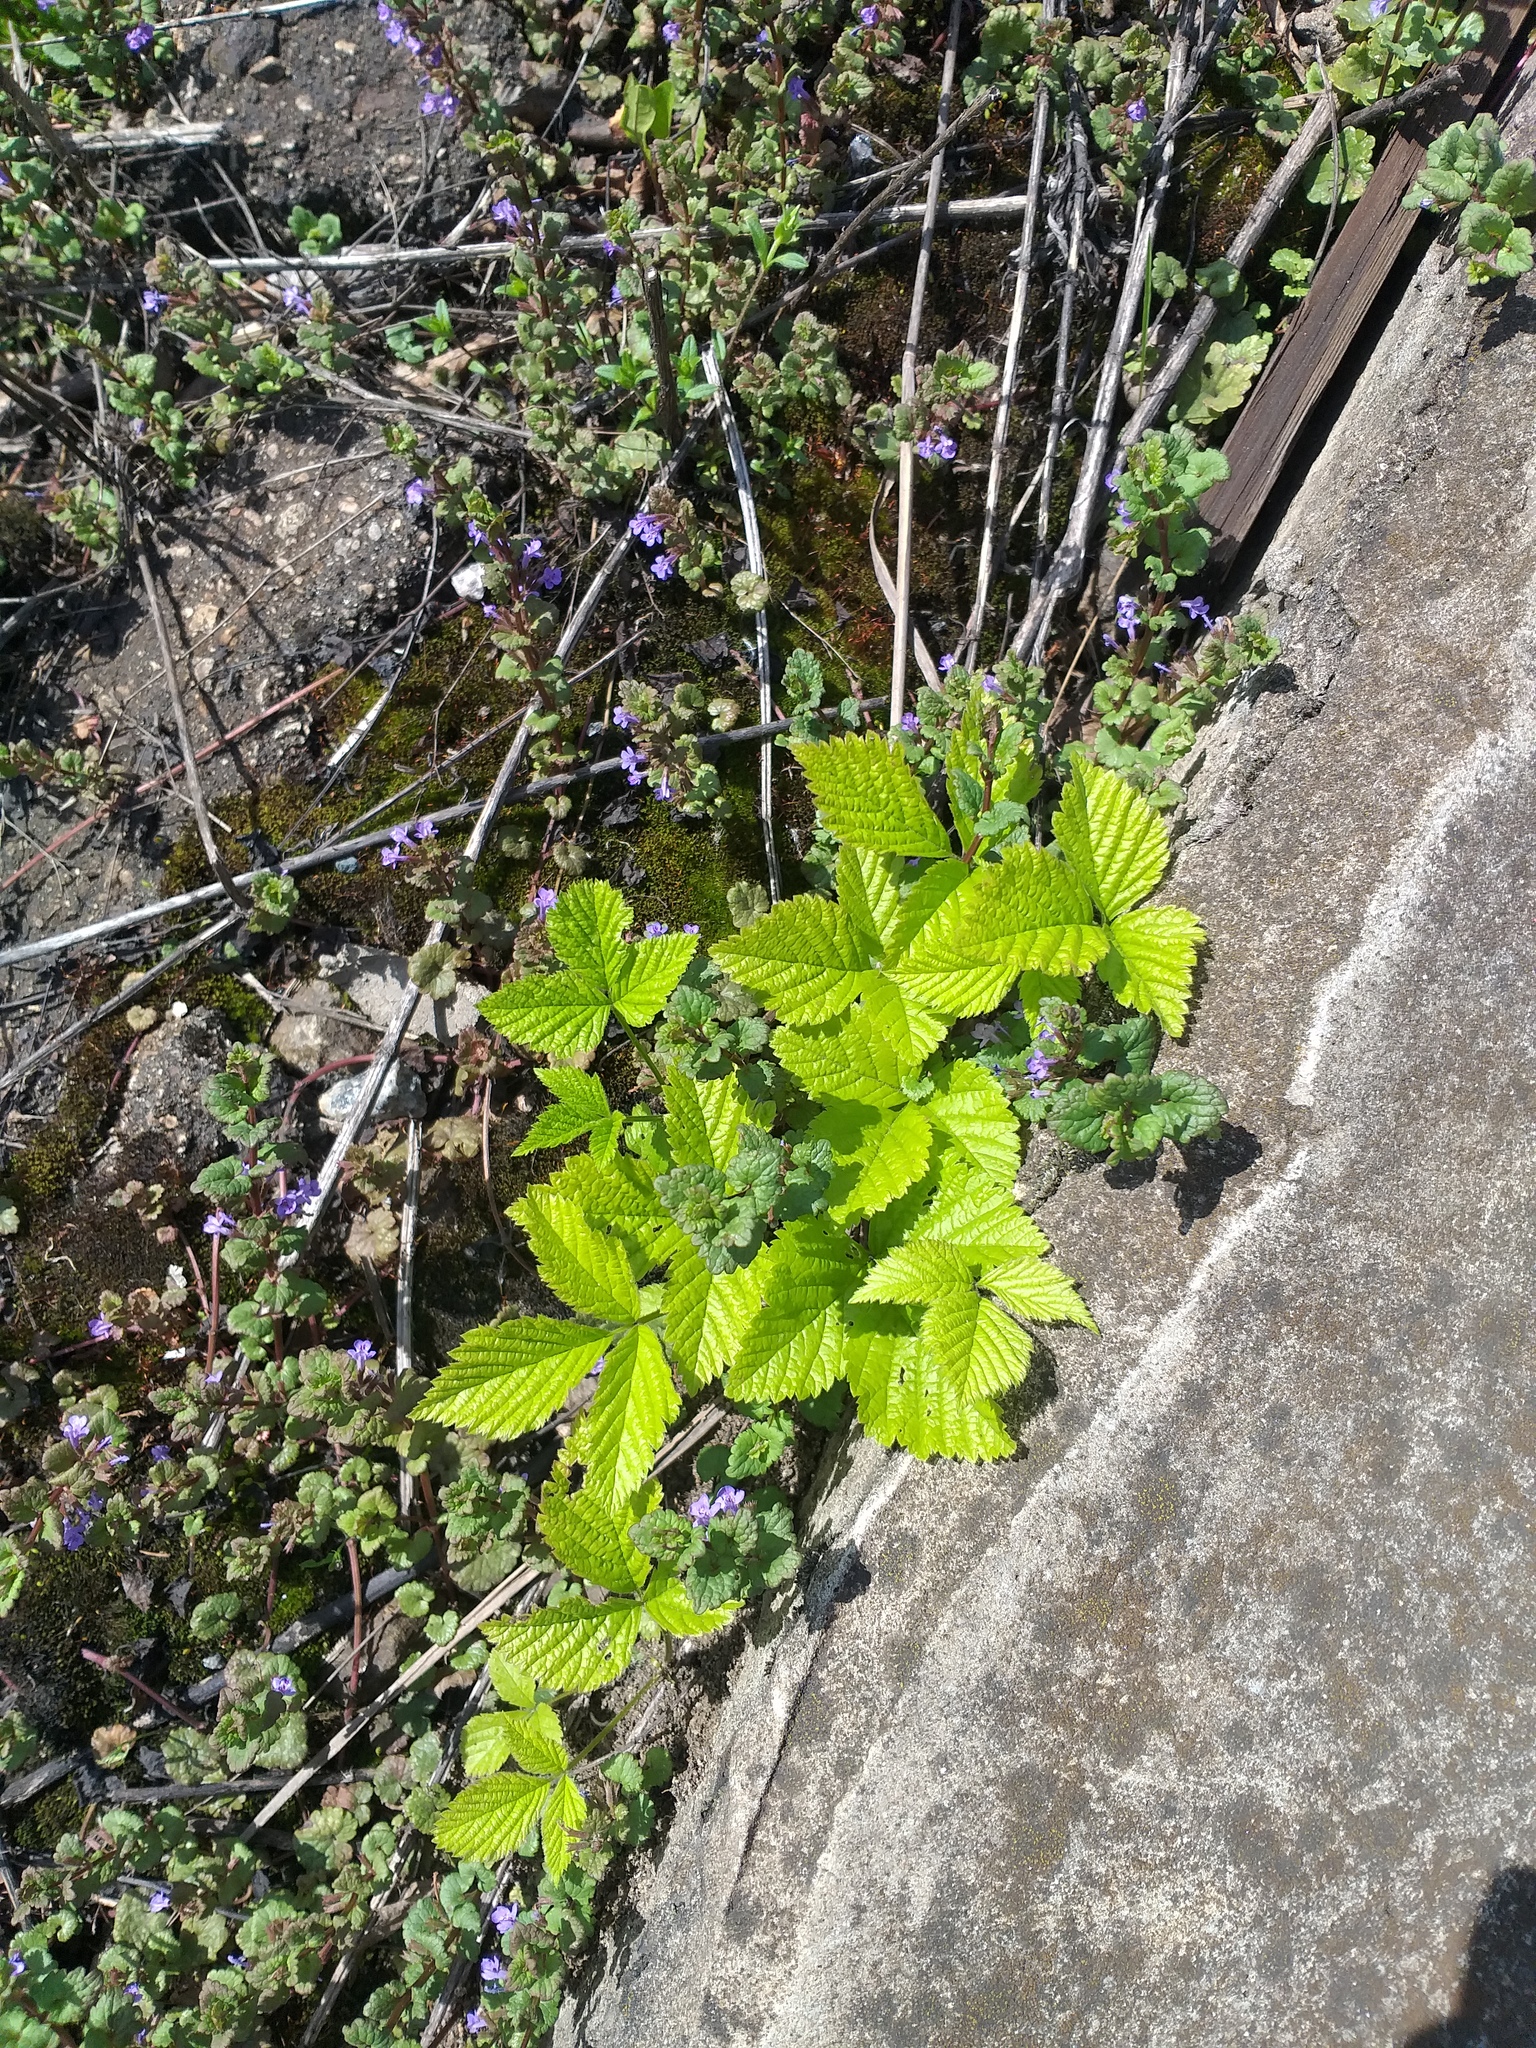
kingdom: Plantae
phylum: Tracheophyta
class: Magnoliopsida
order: Rosales
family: Rosaceae
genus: Rubus
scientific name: Rubus saxatilis
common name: Stone bramble
